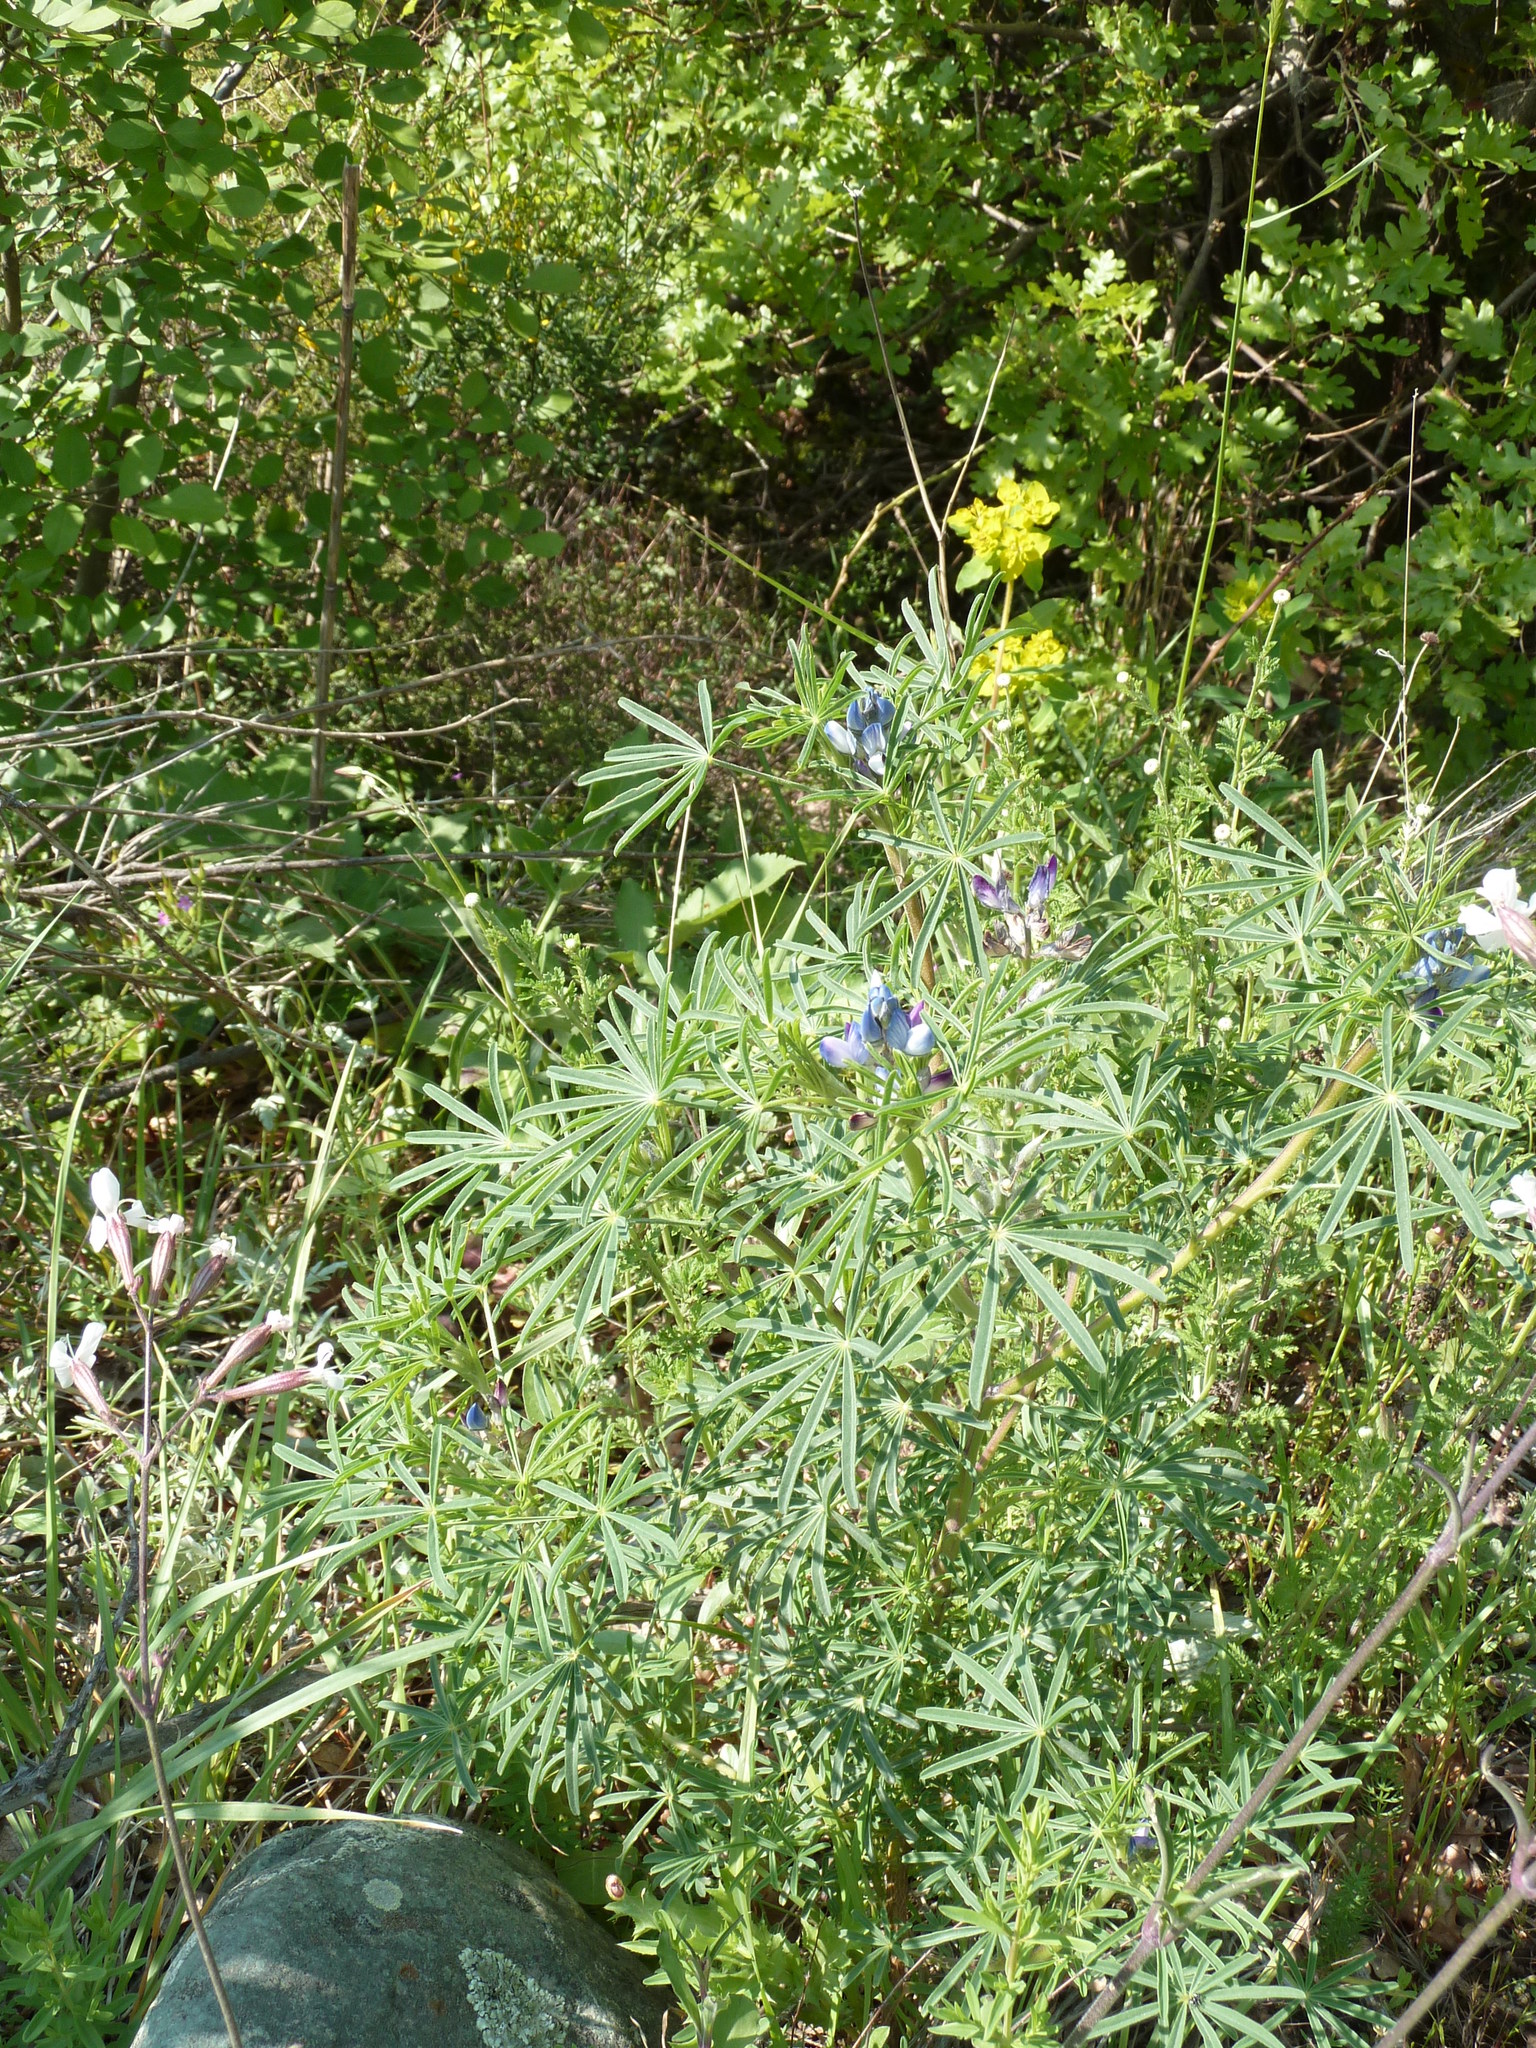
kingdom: Plantae
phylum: Tracheophyta
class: Magnoliopsida
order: Fabales
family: Fabaceae
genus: Lupinus
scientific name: Lupinus angustifolius
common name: Narrow-leaved lupin
